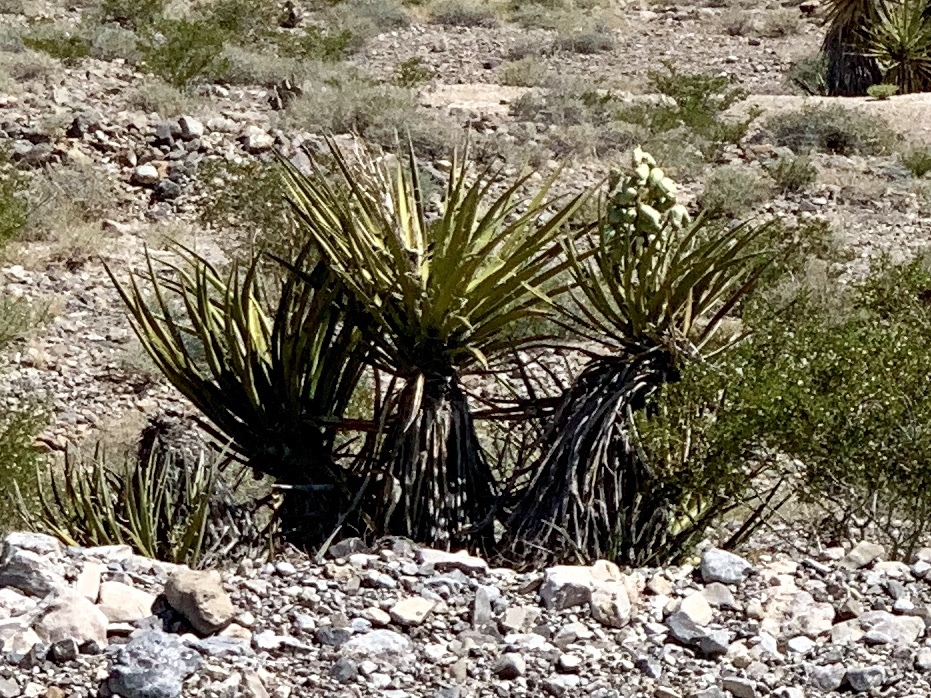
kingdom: Plantae
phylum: Tracheophyta
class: Liliopsida
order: Asparagales
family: Asparagaceae
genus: Yucca
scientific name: Yucca schidigera
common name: Mojave yucca
